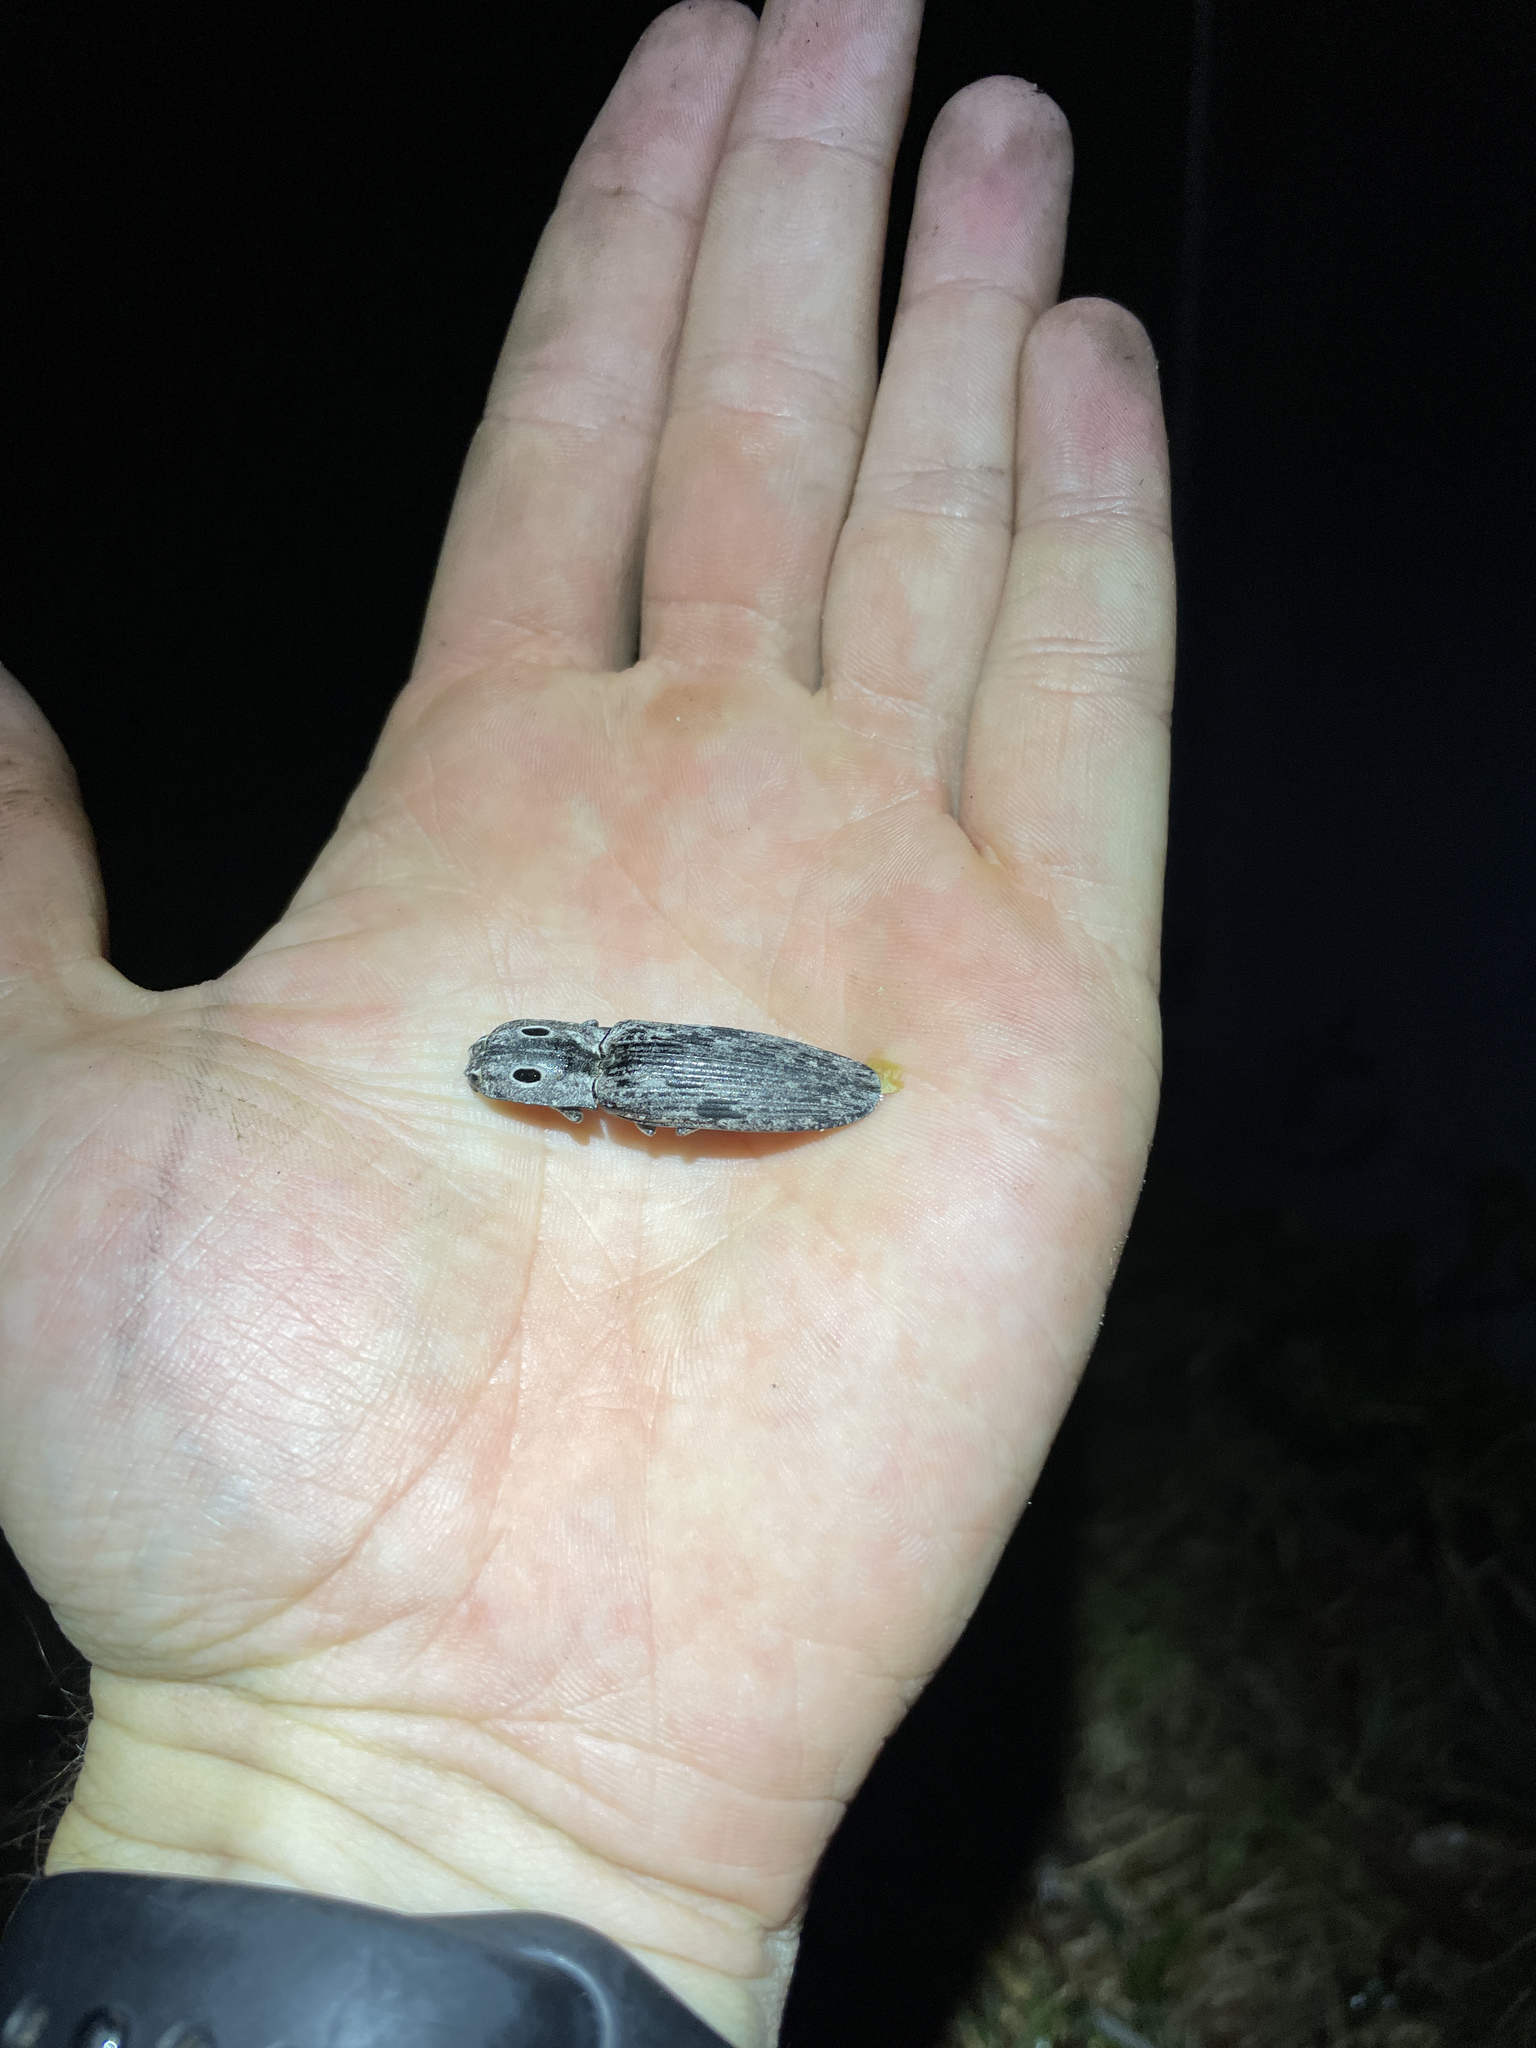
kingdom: Animalia
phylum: Arthropoda
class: Insecta
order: Coleoptera
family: Elateridae
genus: Alaus
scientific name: Alaus myops
